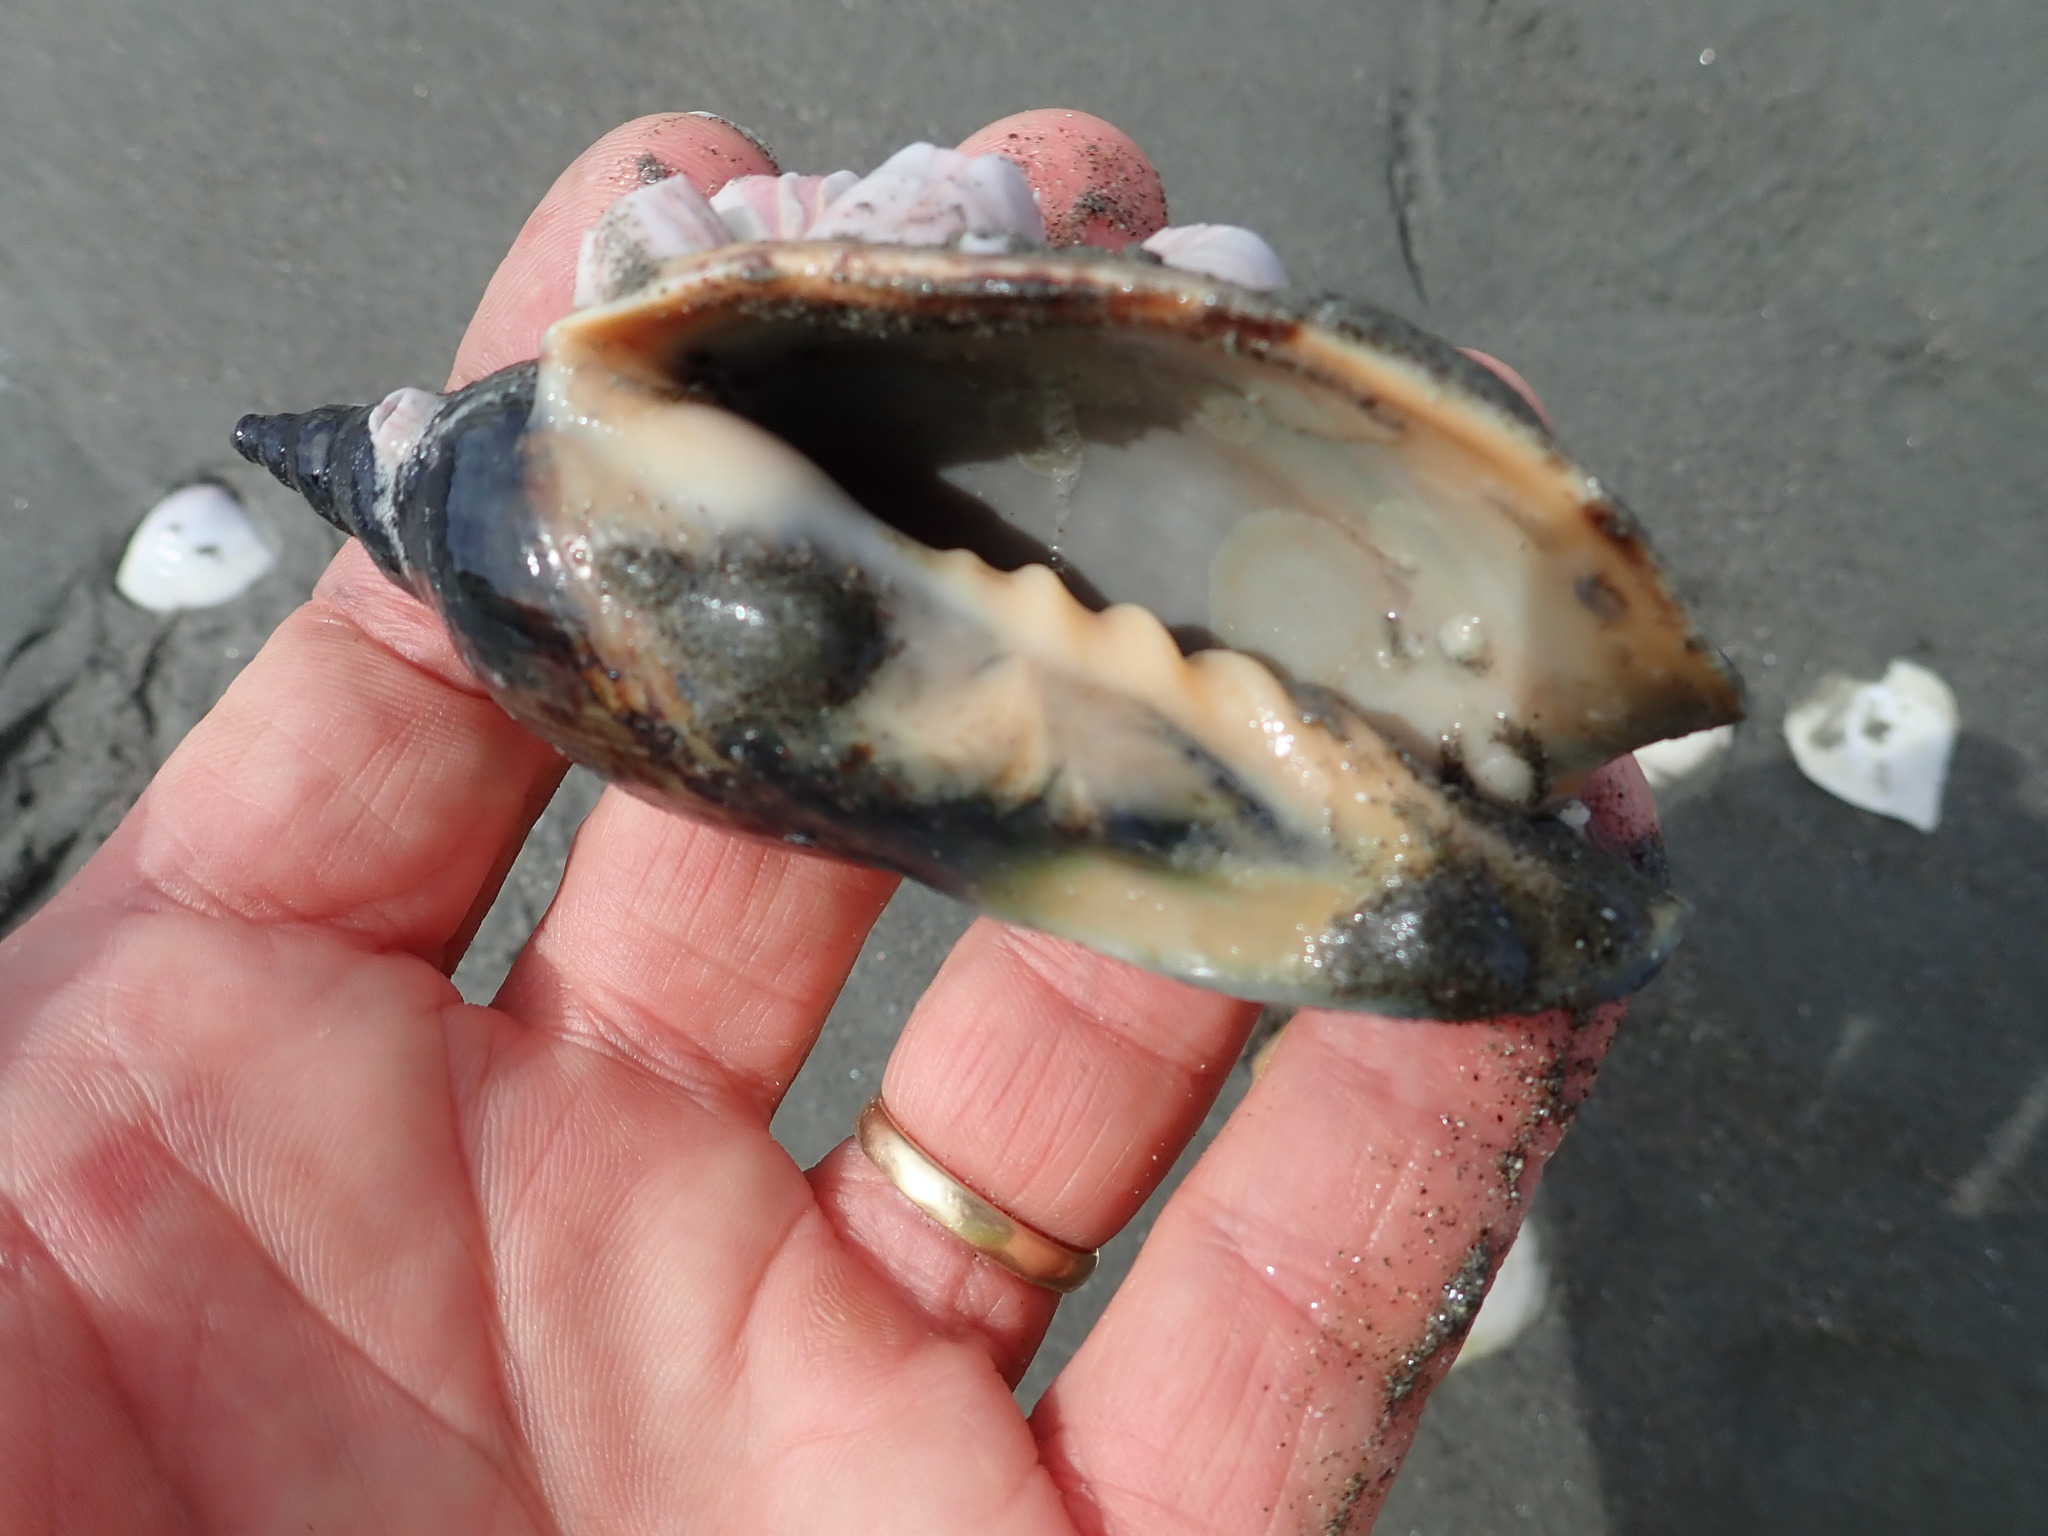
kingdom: Animalia
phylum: Mollusca
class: Gastropoda
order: Neogastropoda
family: Volutidae
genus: Alcithoe
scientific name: Alcithoe arabica
